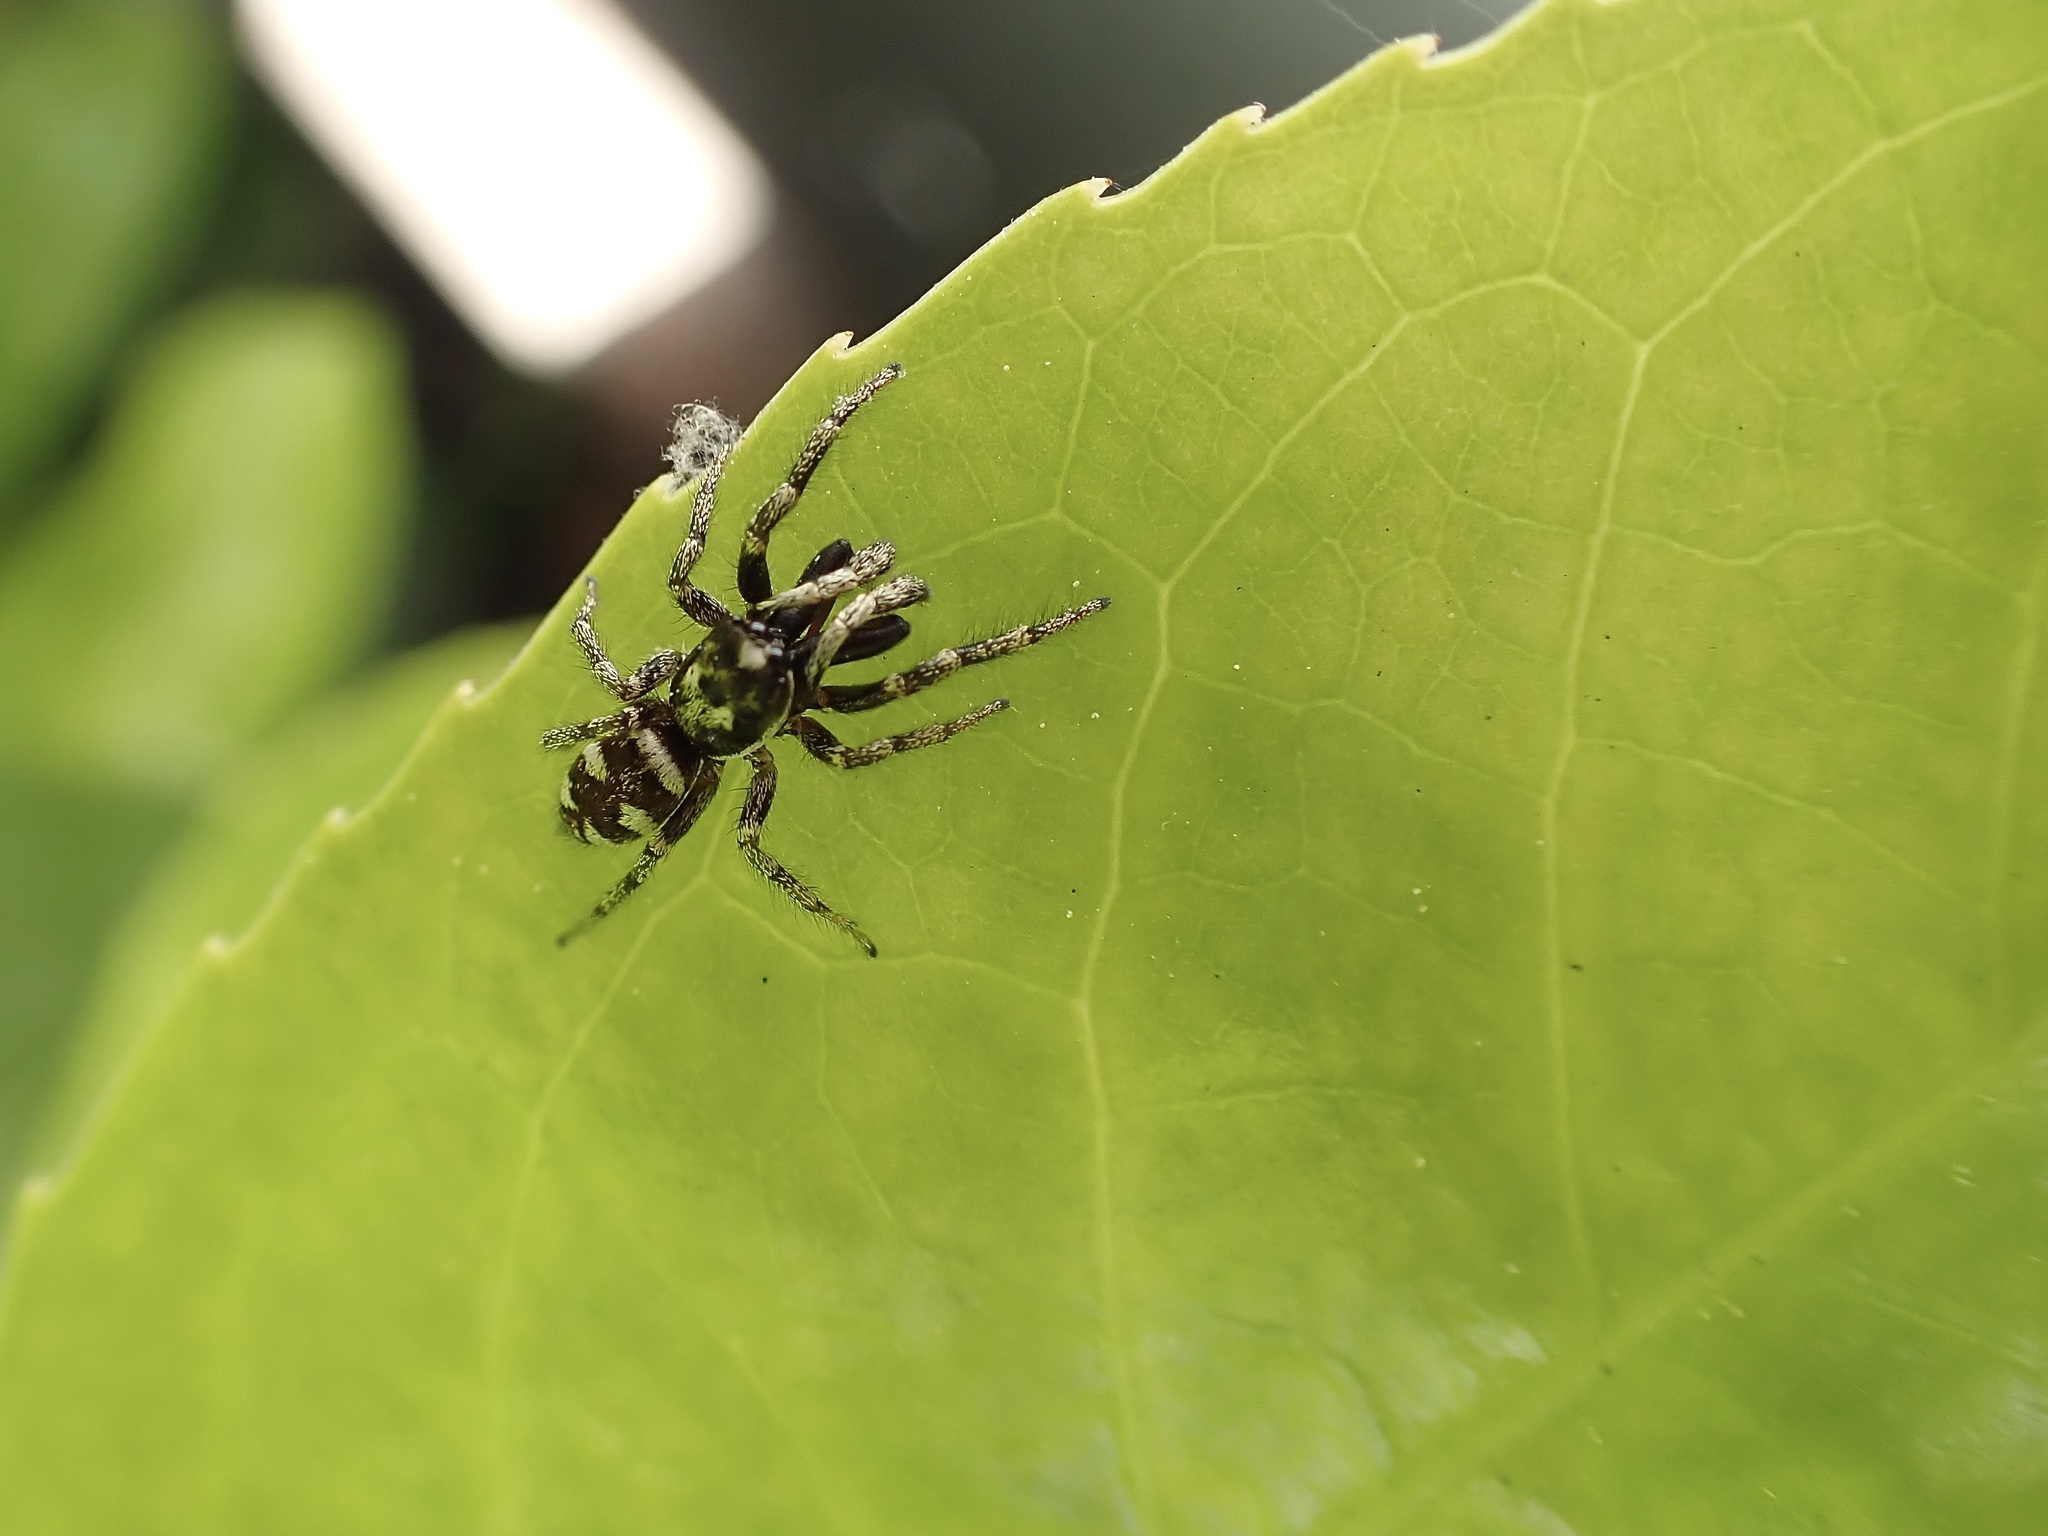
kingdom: Animalia
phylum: Arthropoda
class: Arachnida
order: Araneae
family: Salticidae
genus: Salticus
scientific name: Salticus scenicus
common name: Zebra jumper
